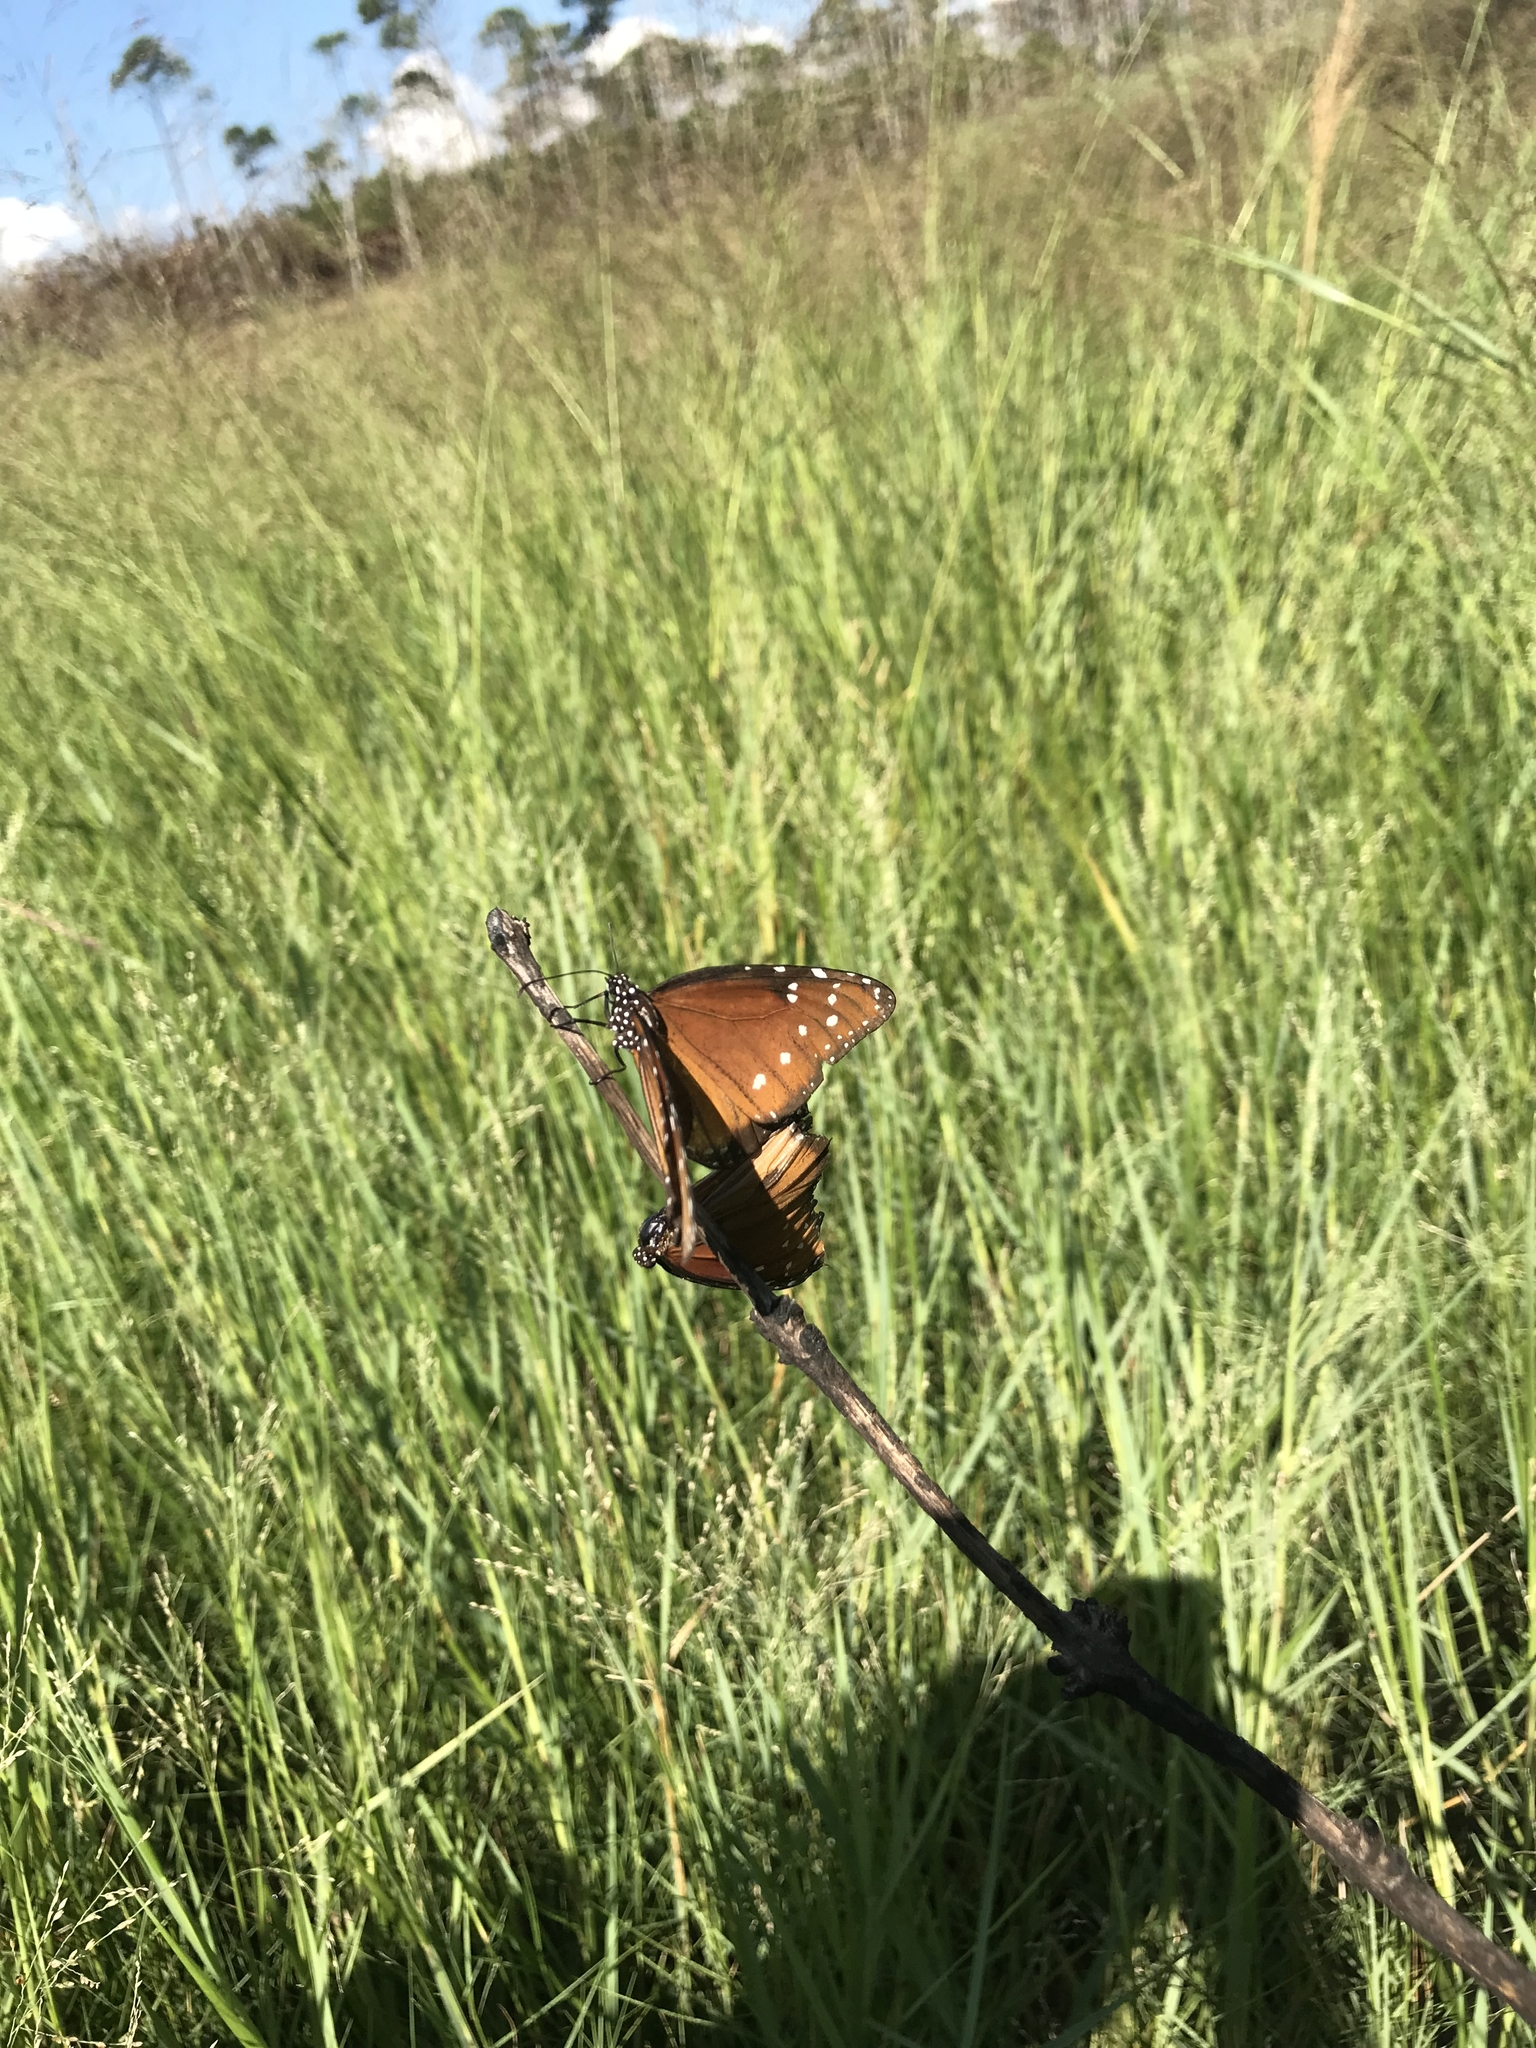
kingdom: Animalia
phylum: Arthropoda
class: Insecta
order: Lepidoptera
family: Nymphalidae
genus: Danaus
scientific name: Danaus gilippus
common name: Queen
